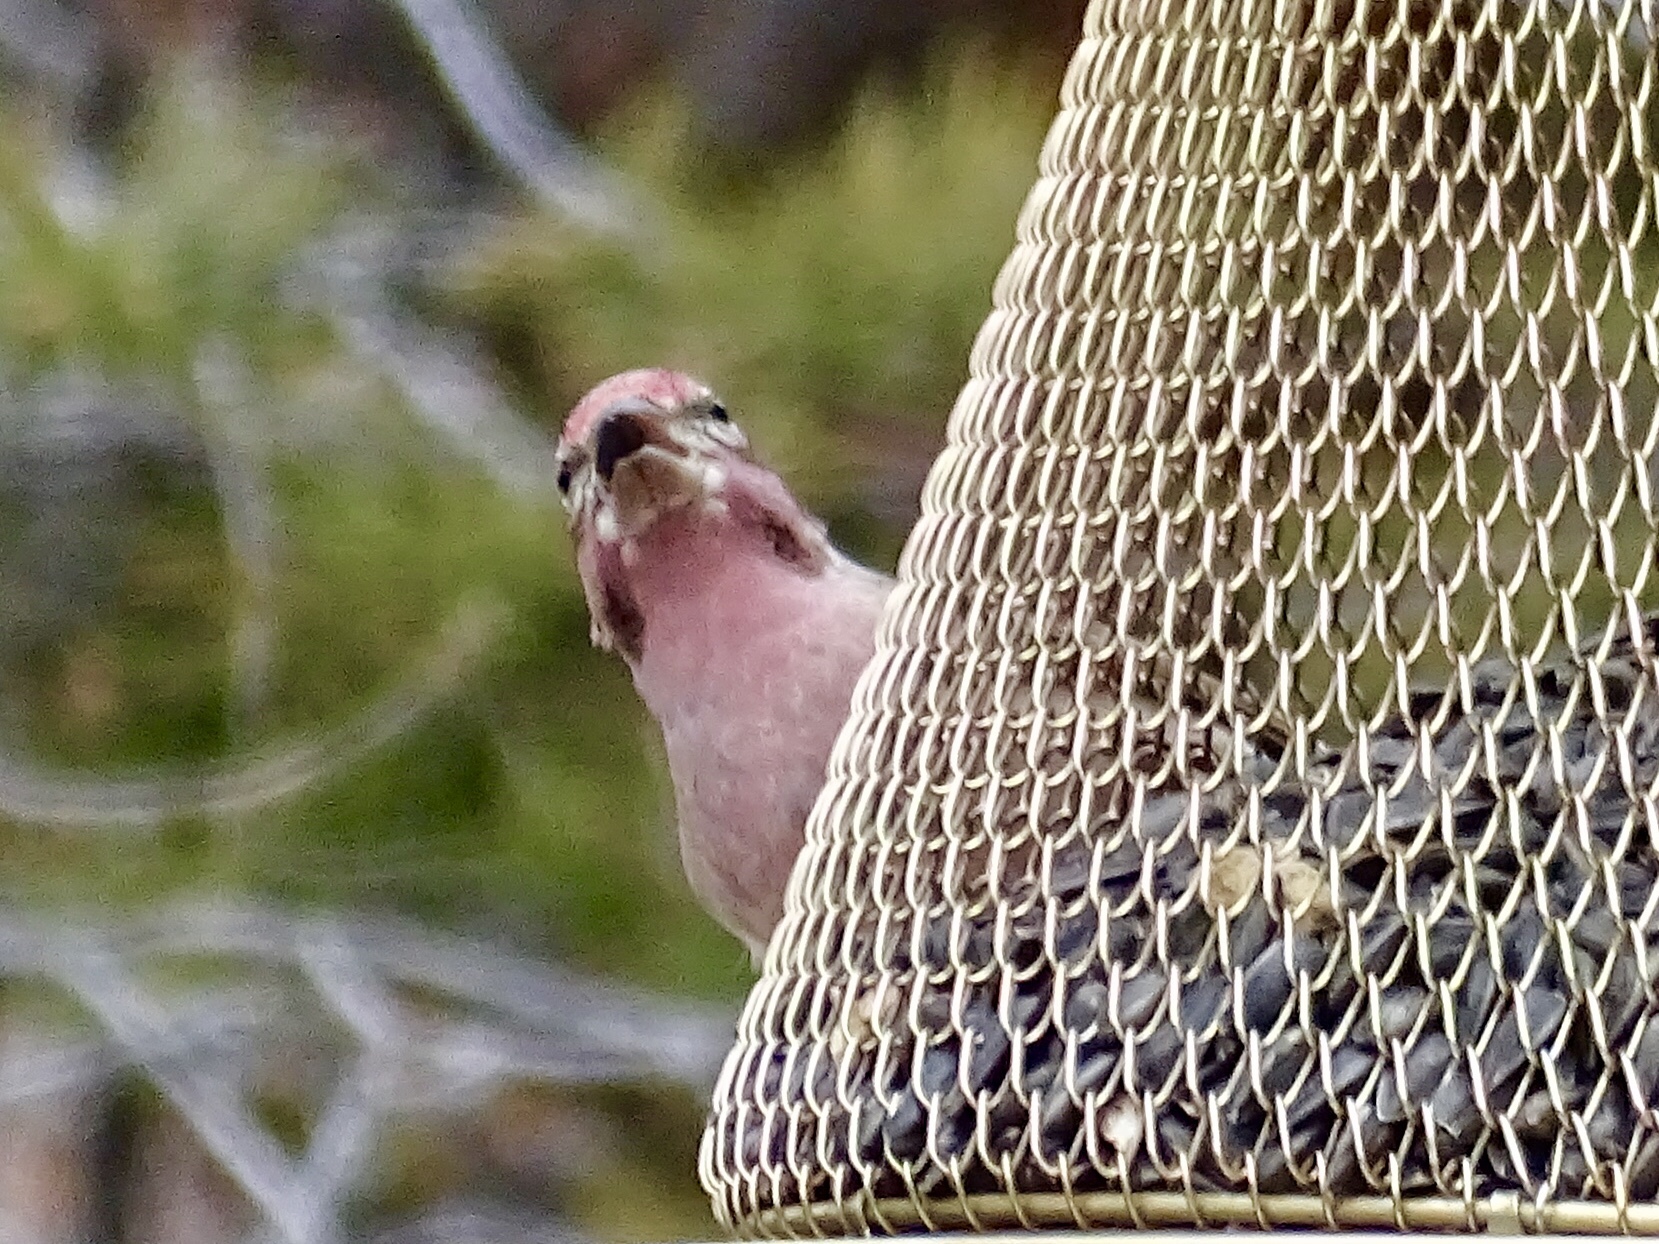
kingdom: Animalia
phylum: Chordata
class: Aves
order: Passeriformes
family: Fringillidae
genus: Haemorhous
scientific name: Haemorhous cassinii
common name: Cassin's finch
